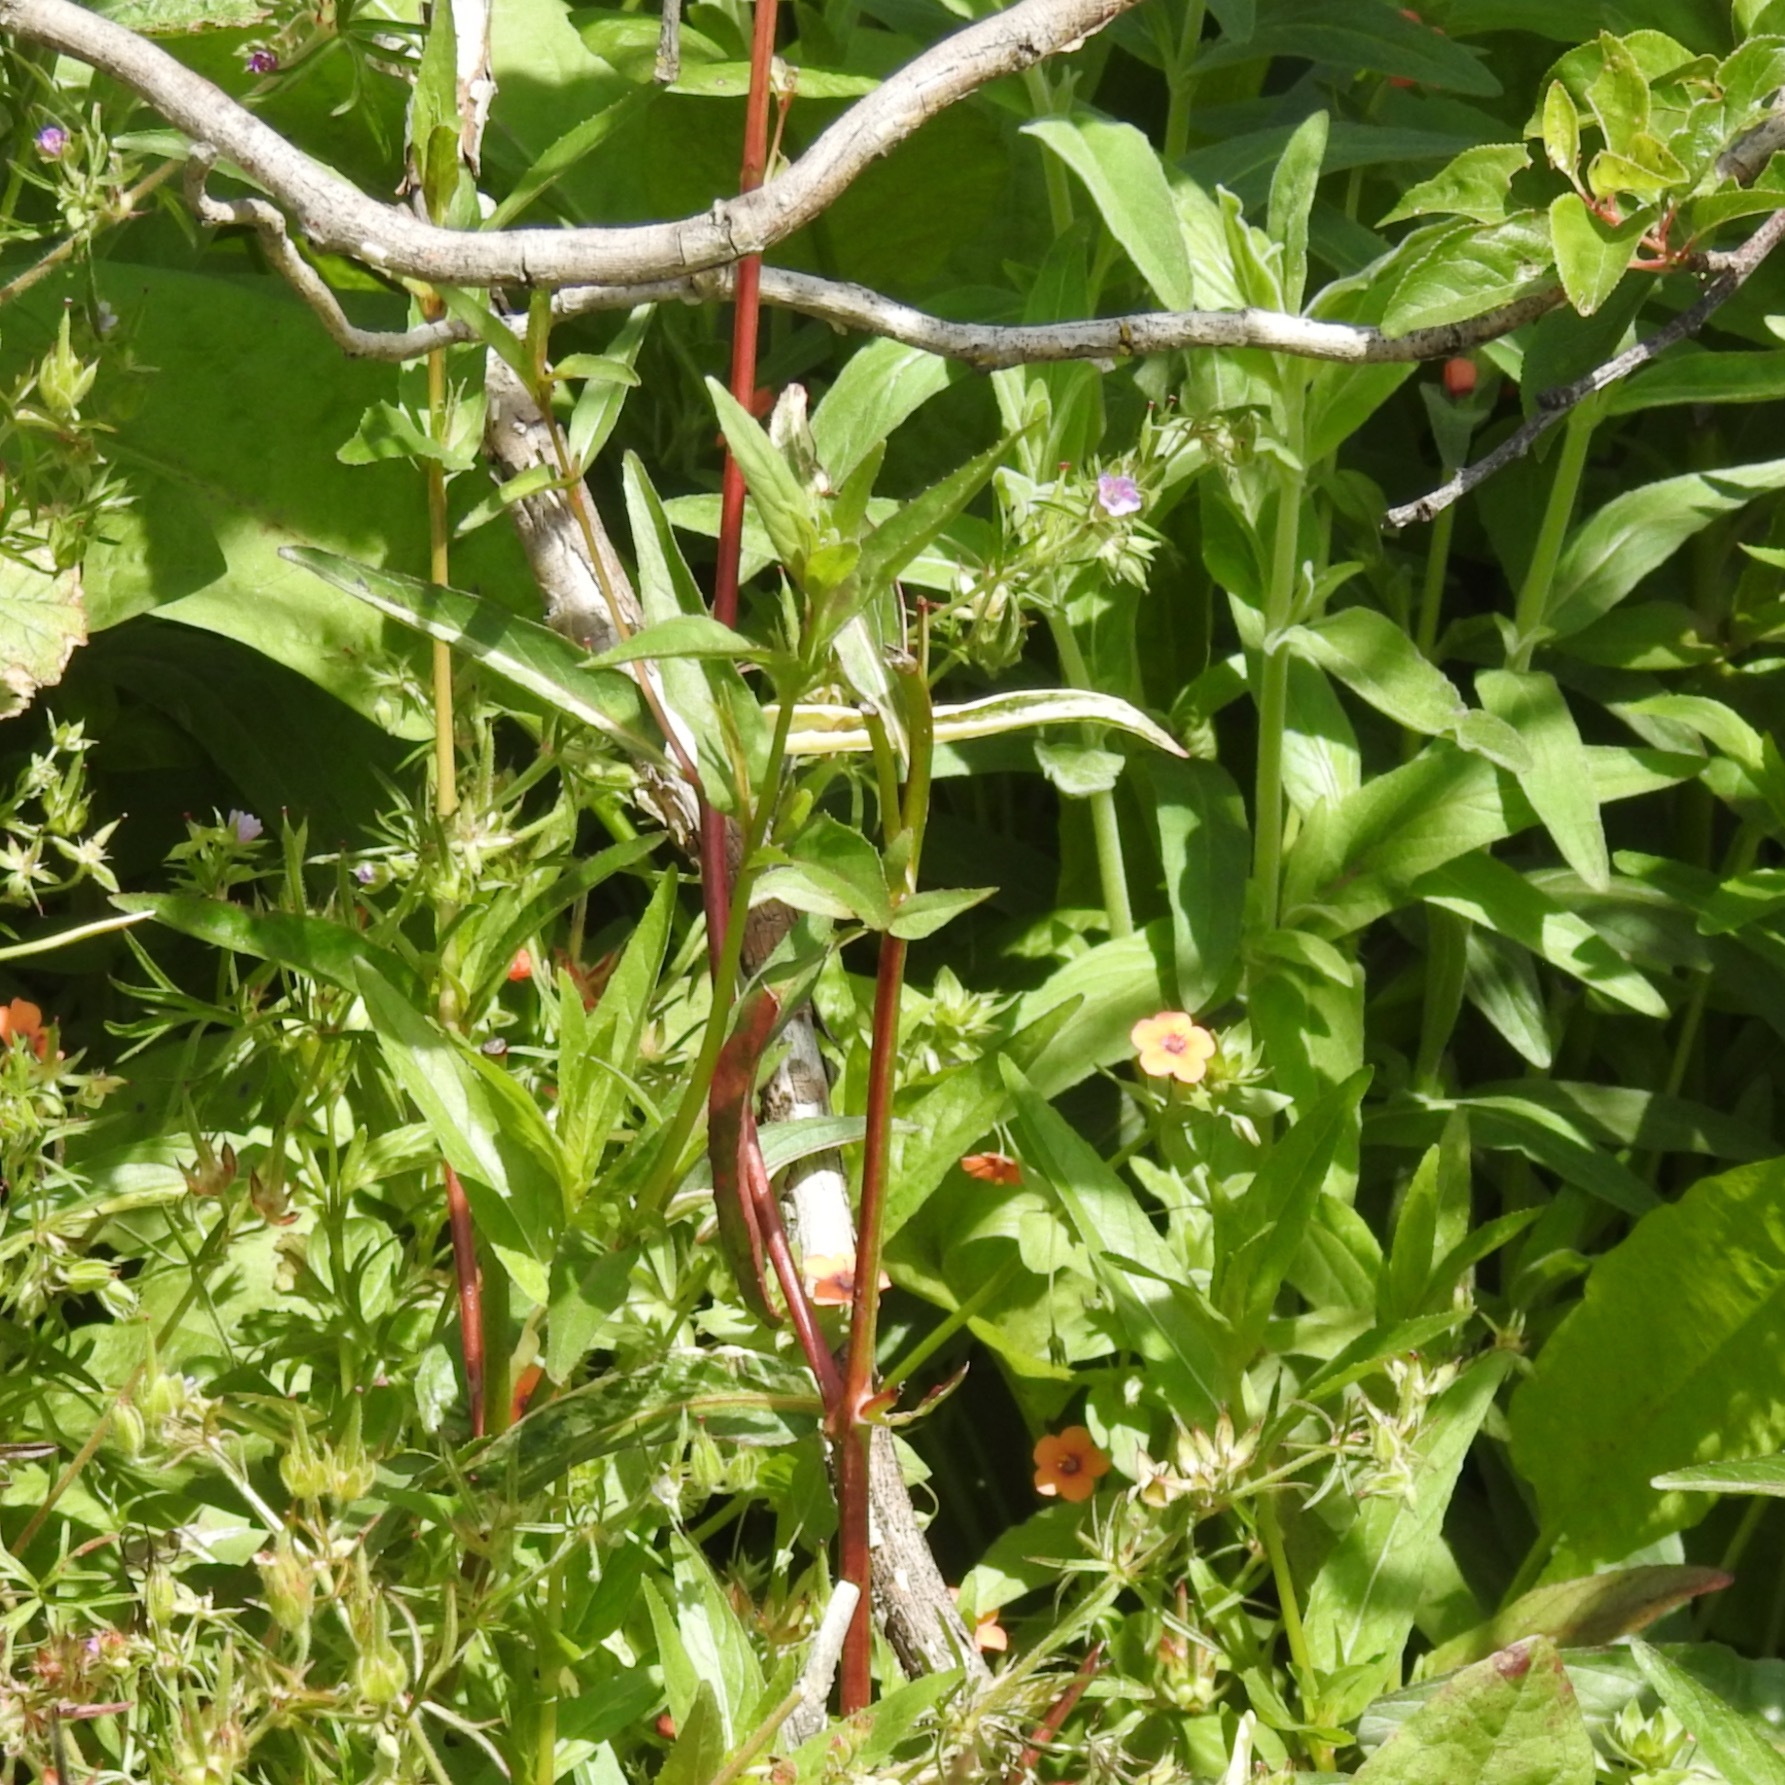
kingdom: Plantae
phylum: Tracheophyta
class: Magnoliopsida
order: Ericales
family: Primulaceae
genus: Lysimachia
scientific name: Lysimachia arvensis
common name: Scarlet pimpernel
